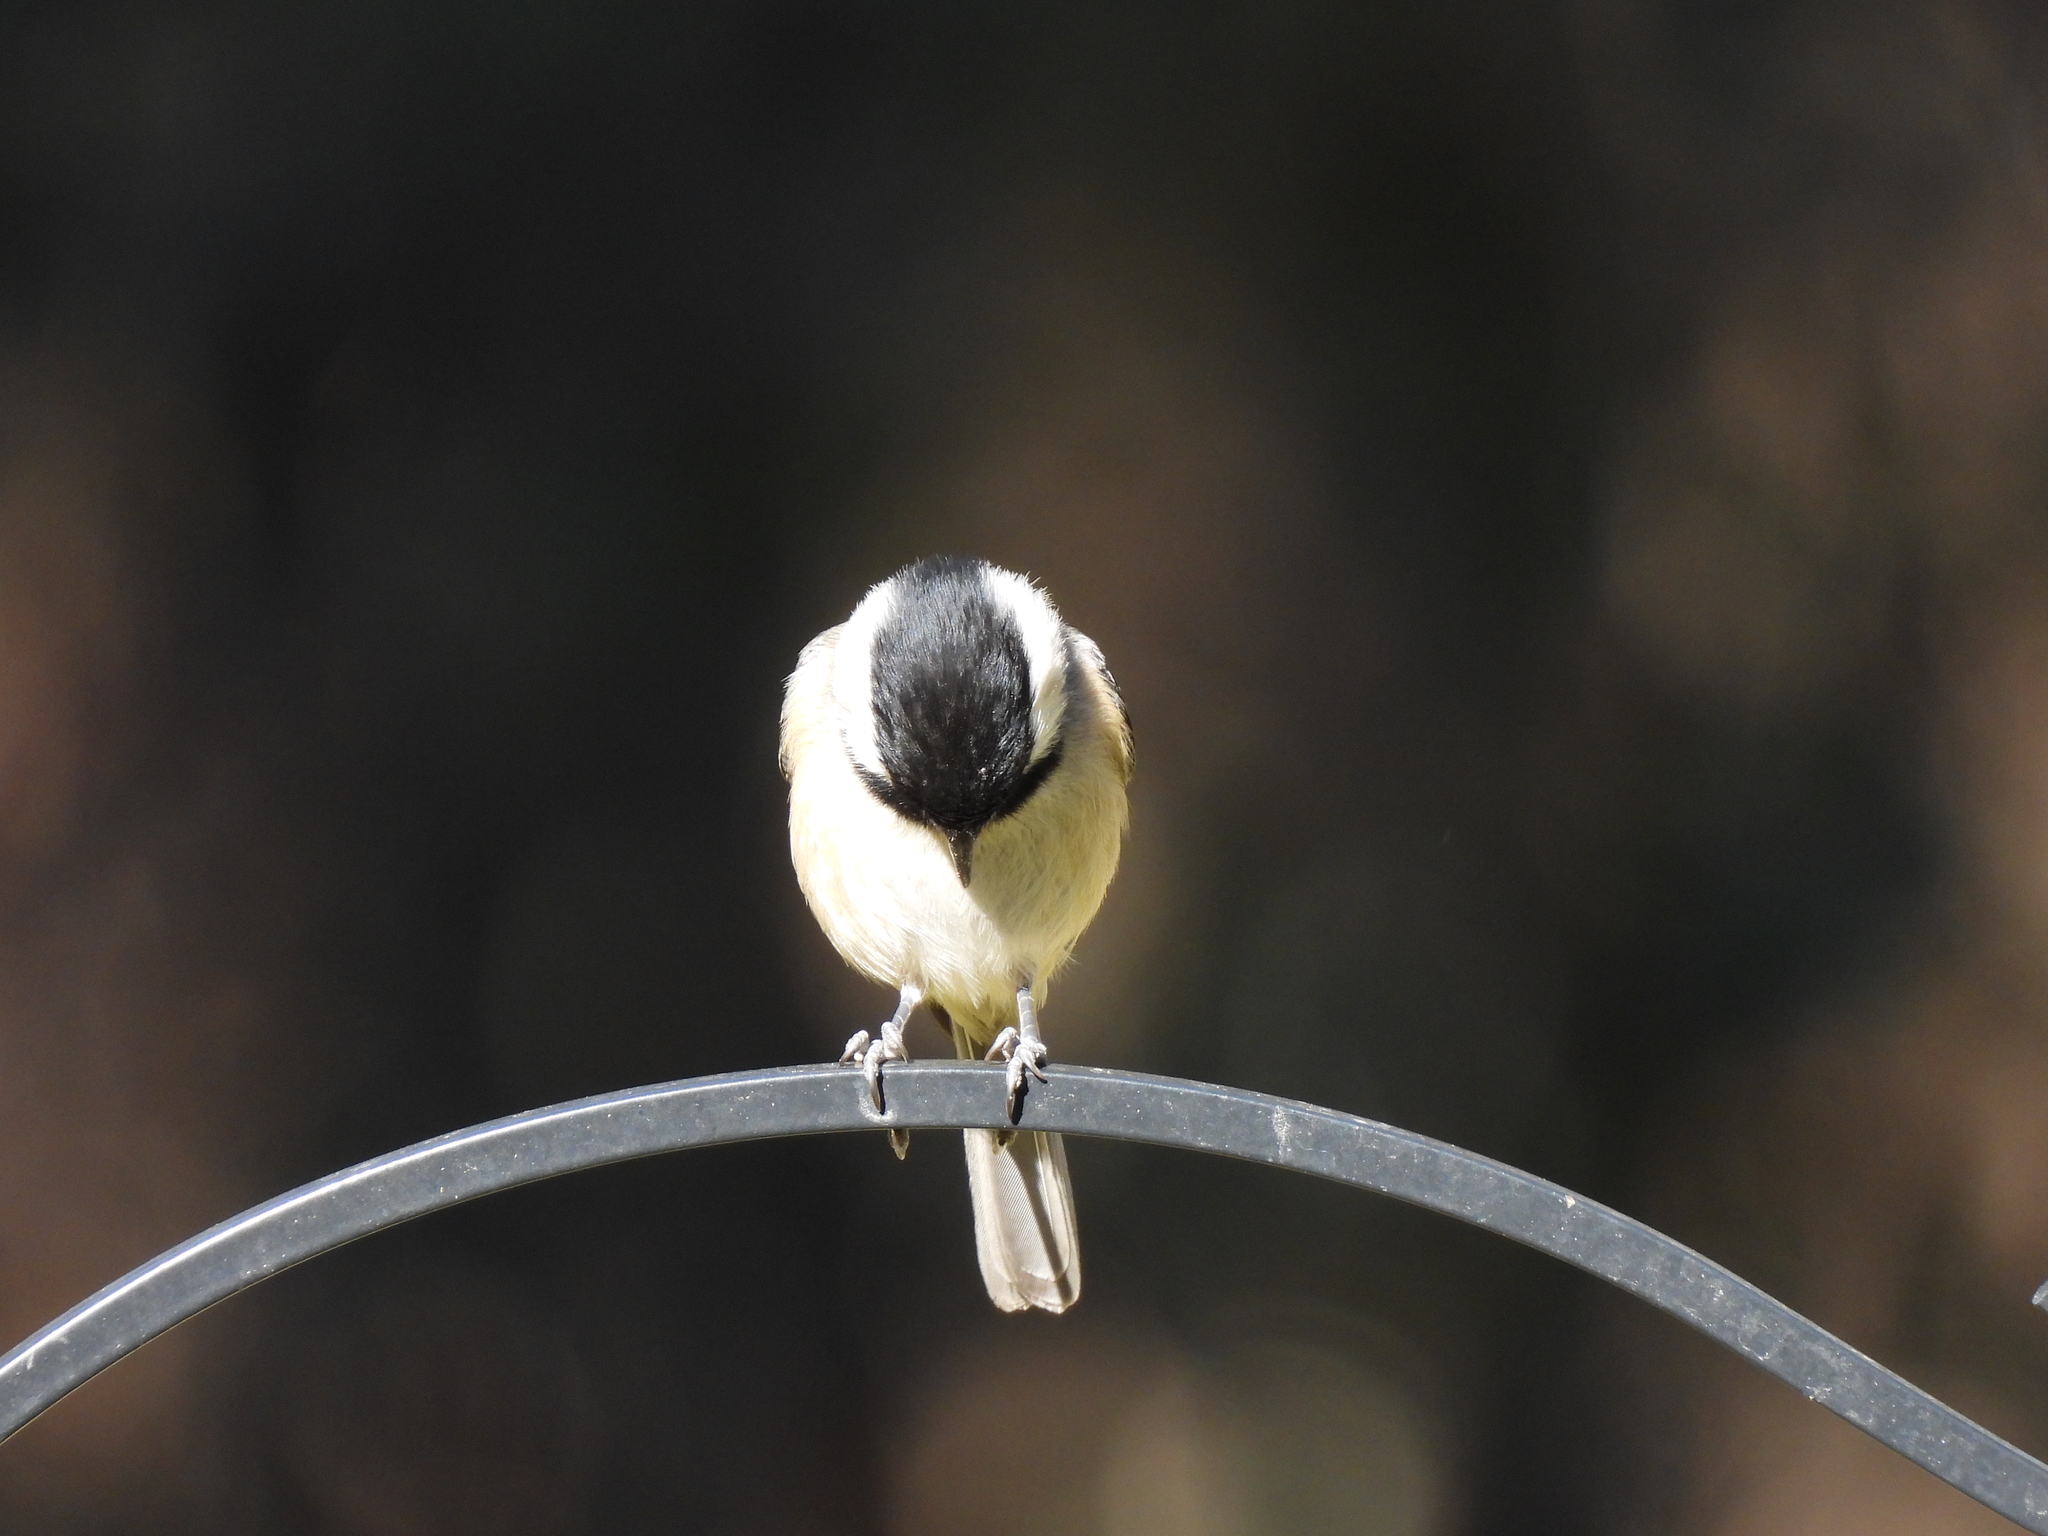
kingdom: Animalia
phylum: Chordata
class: Aves
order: Passeriformes
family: Paridae
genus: Poecile
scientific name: Poecile carolinensis
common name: Carolina chickadee
